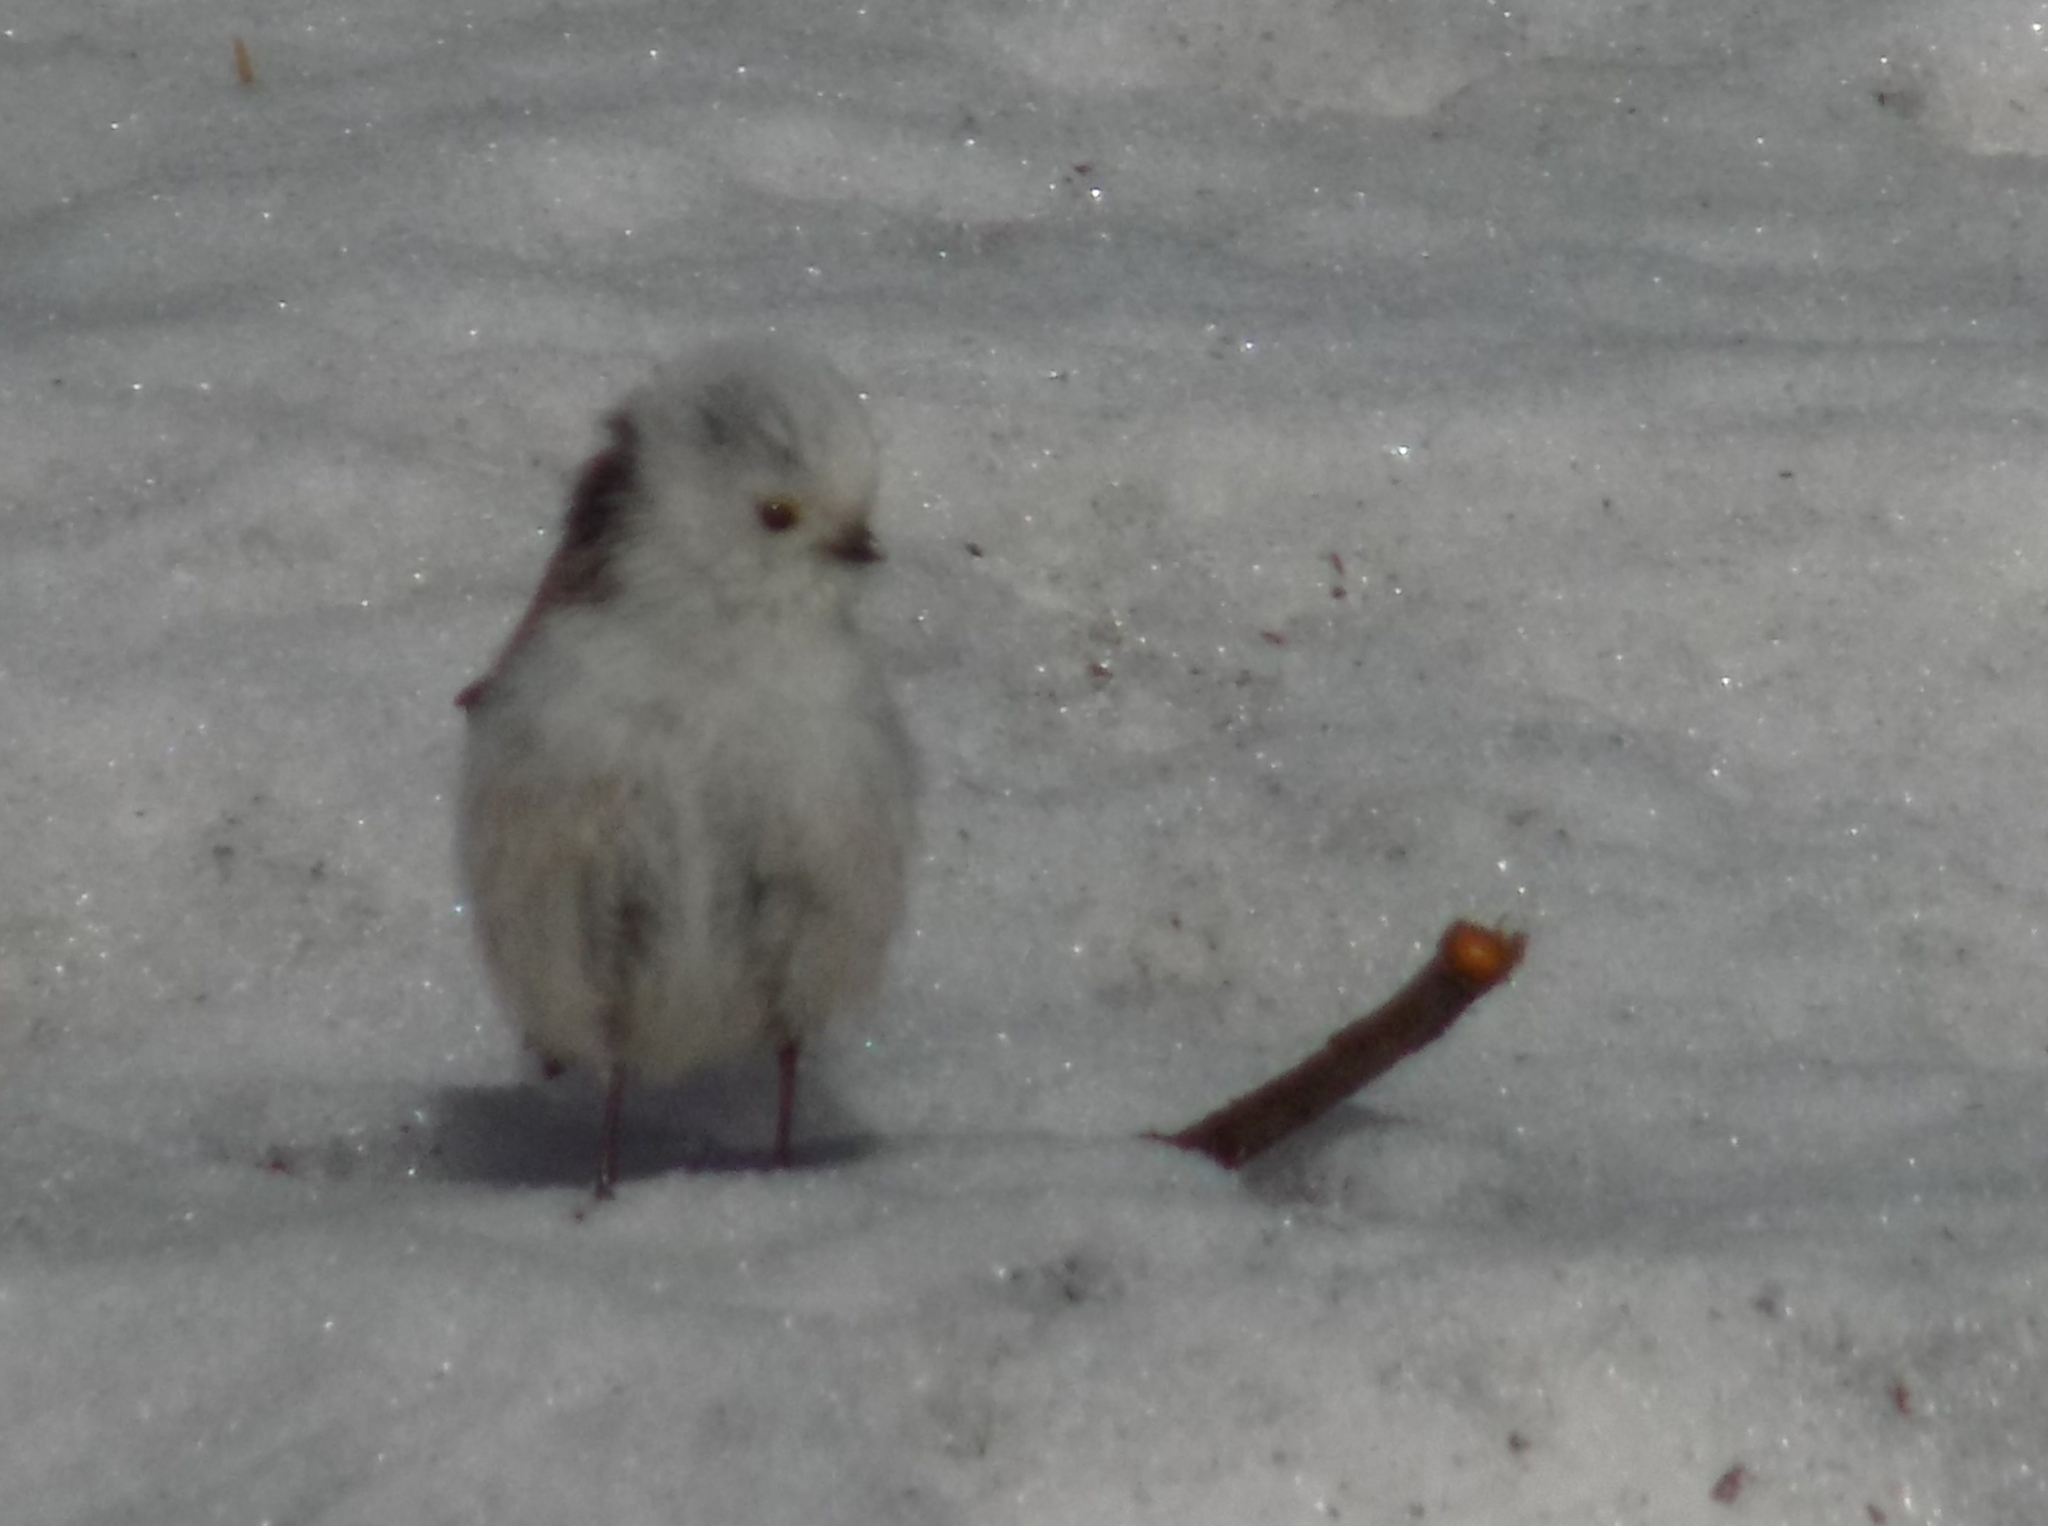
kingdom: Animalia
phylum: Chordata
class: Aves
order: Passeriformes
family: Aegithalidae
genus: Aegithalos
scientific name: Aegithalos caudatus
